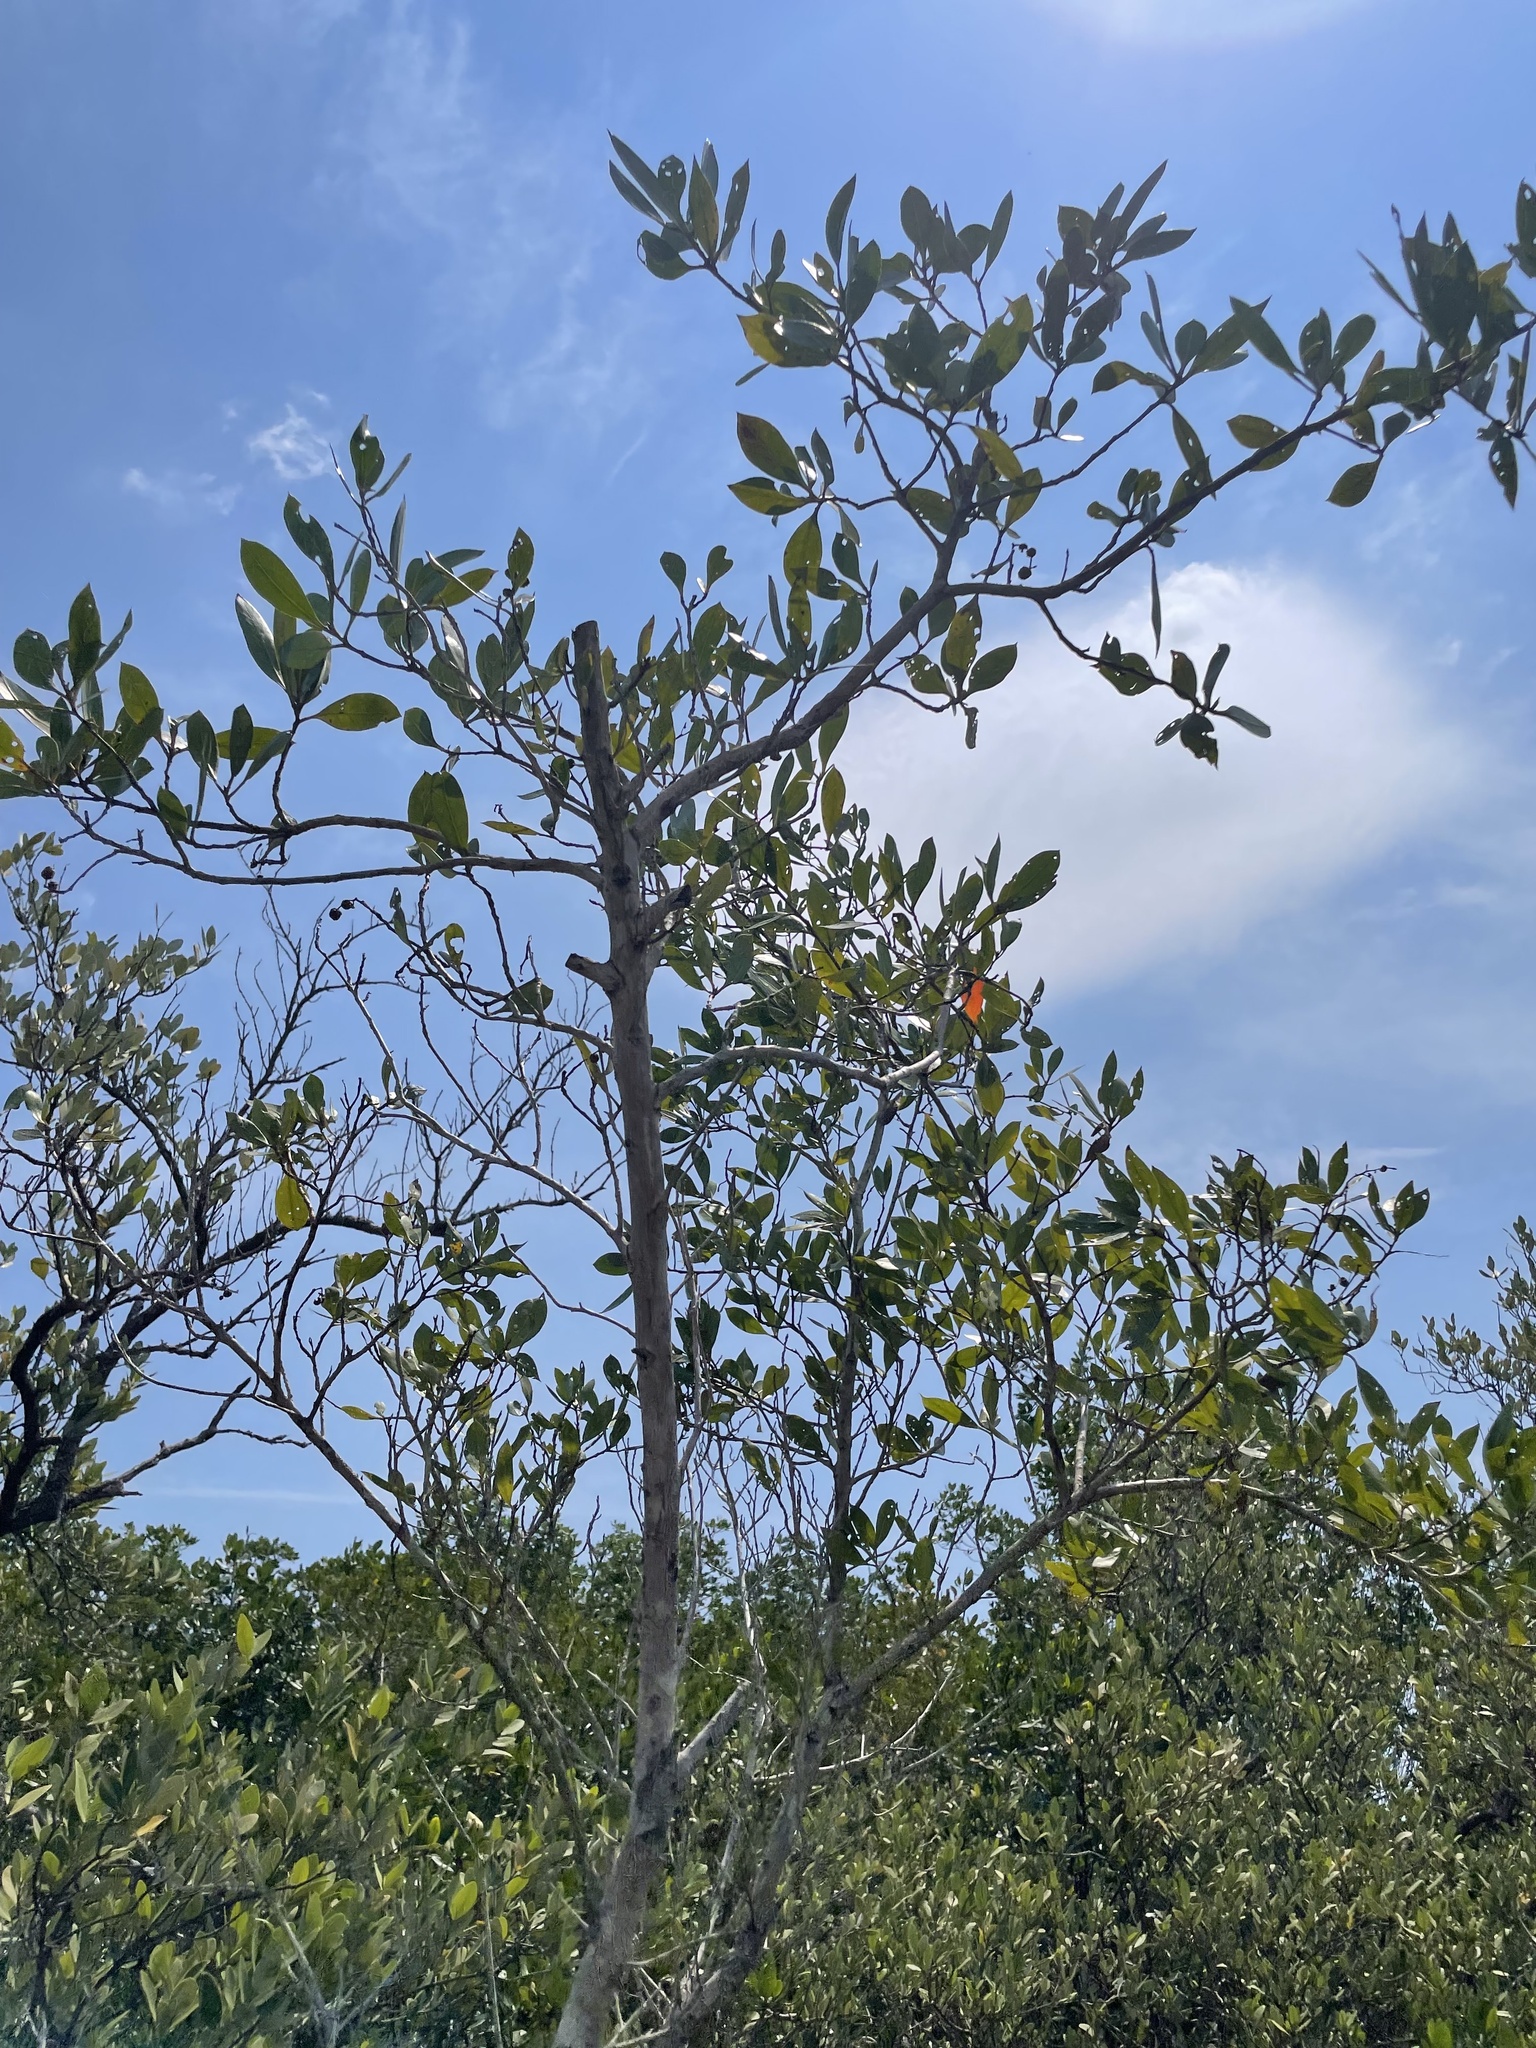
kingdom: Plantae
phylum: Tracheophyta
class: Magnoliopsida
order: Myrtales
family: Combretaceae
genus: Conocarpus
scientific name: Conocarpus erectus
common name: Button mangrove
